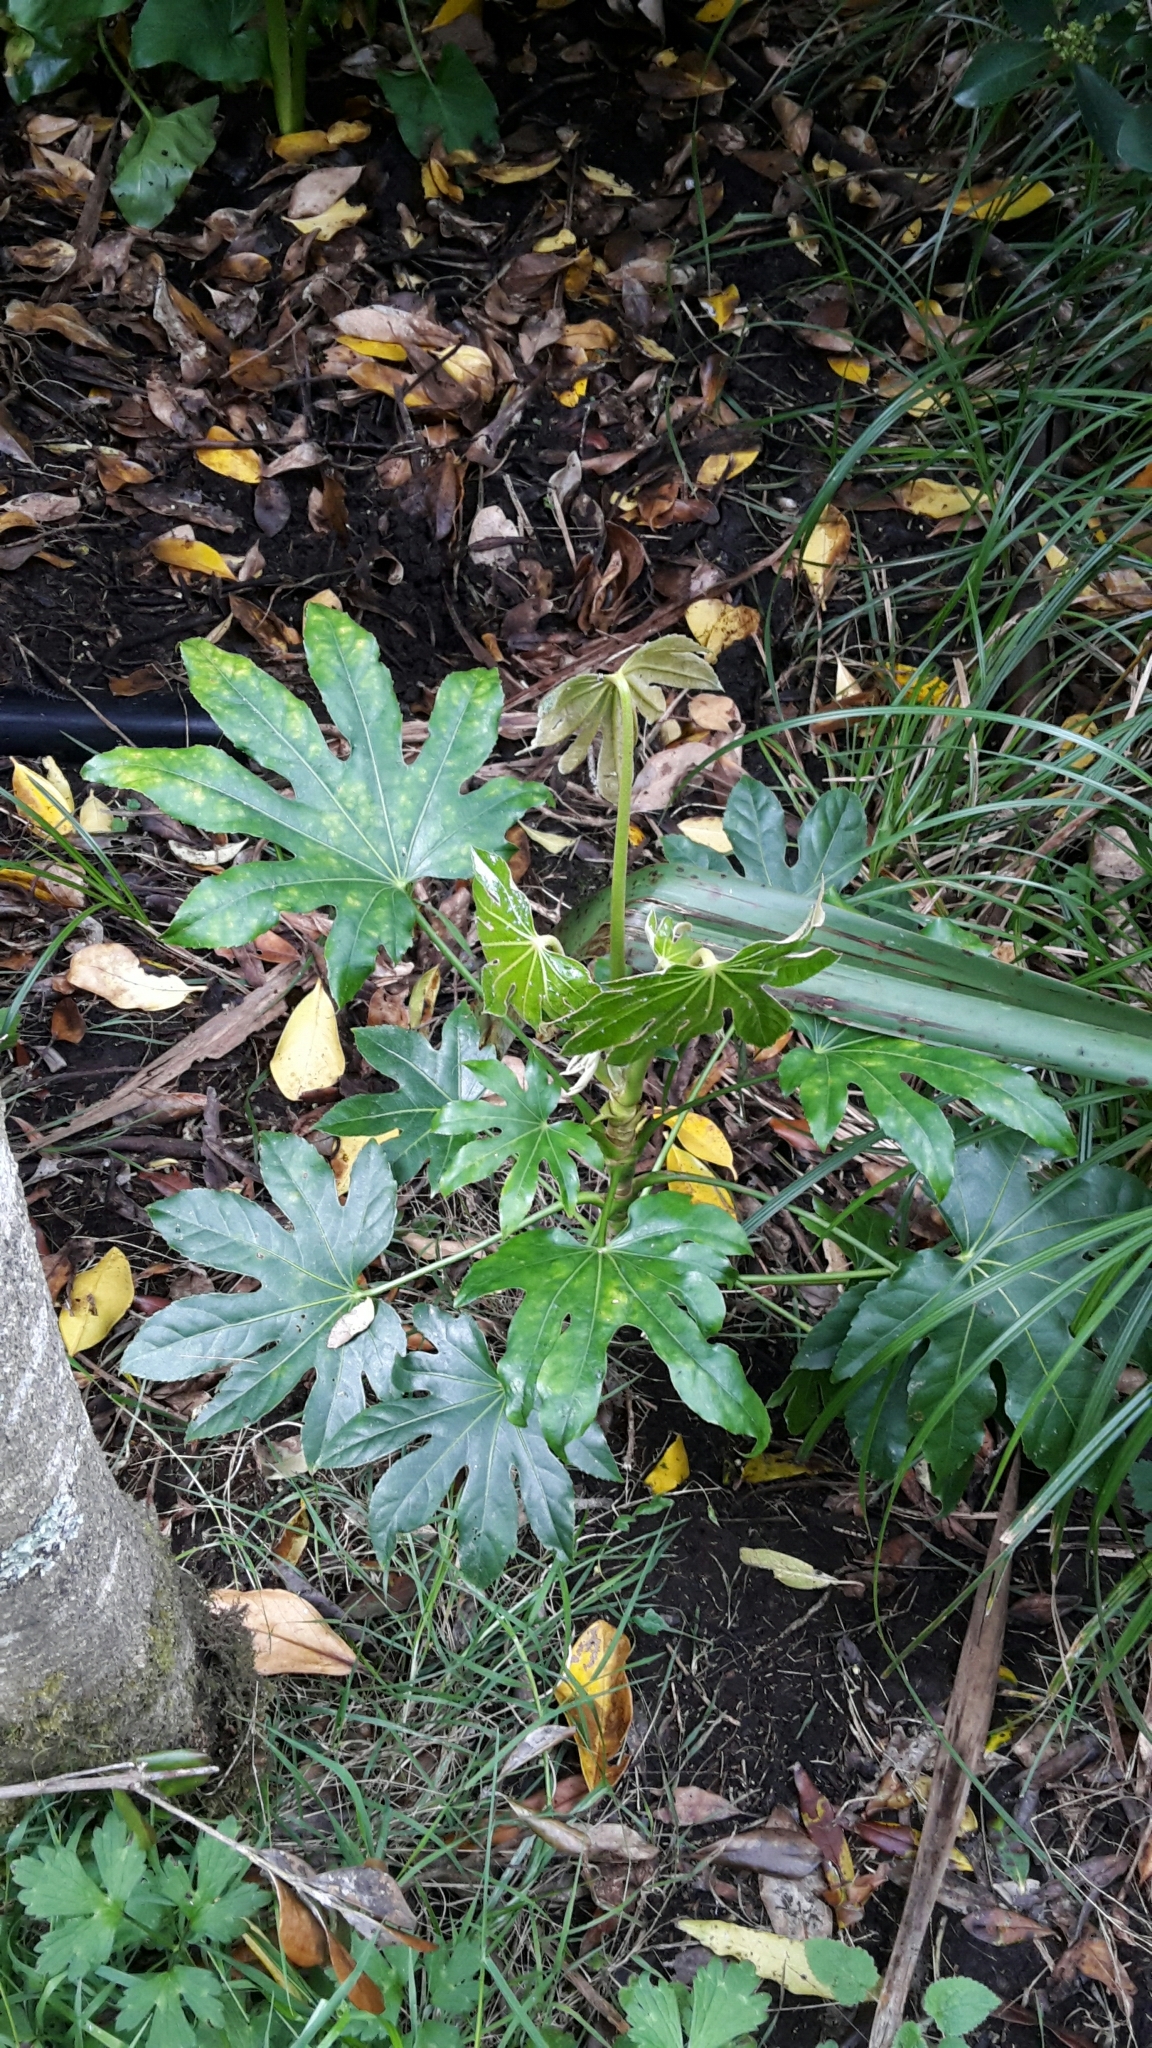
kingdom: Plantae
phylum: Tracheophyta
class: Magnoliopsida
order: Apiales
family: Araliaceae
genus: Fatsia
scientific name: Fatsia japonica
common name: Fatsia
